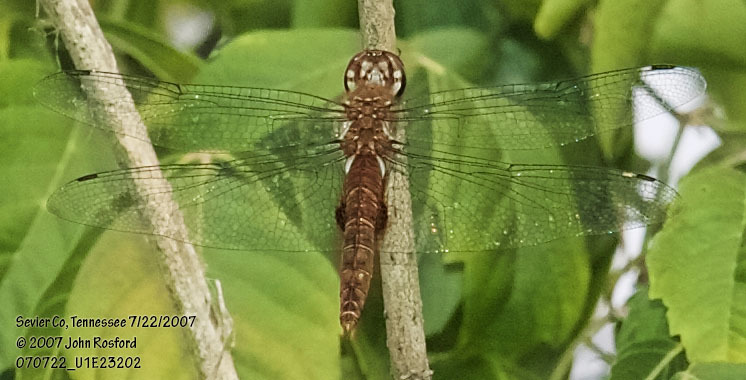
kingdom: Animalia
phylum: Arthropoda
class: Insecta
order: Odonata
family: Libellulidae
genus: Pantala
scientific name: Pantala hymenaea
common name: Spot-winged glider
